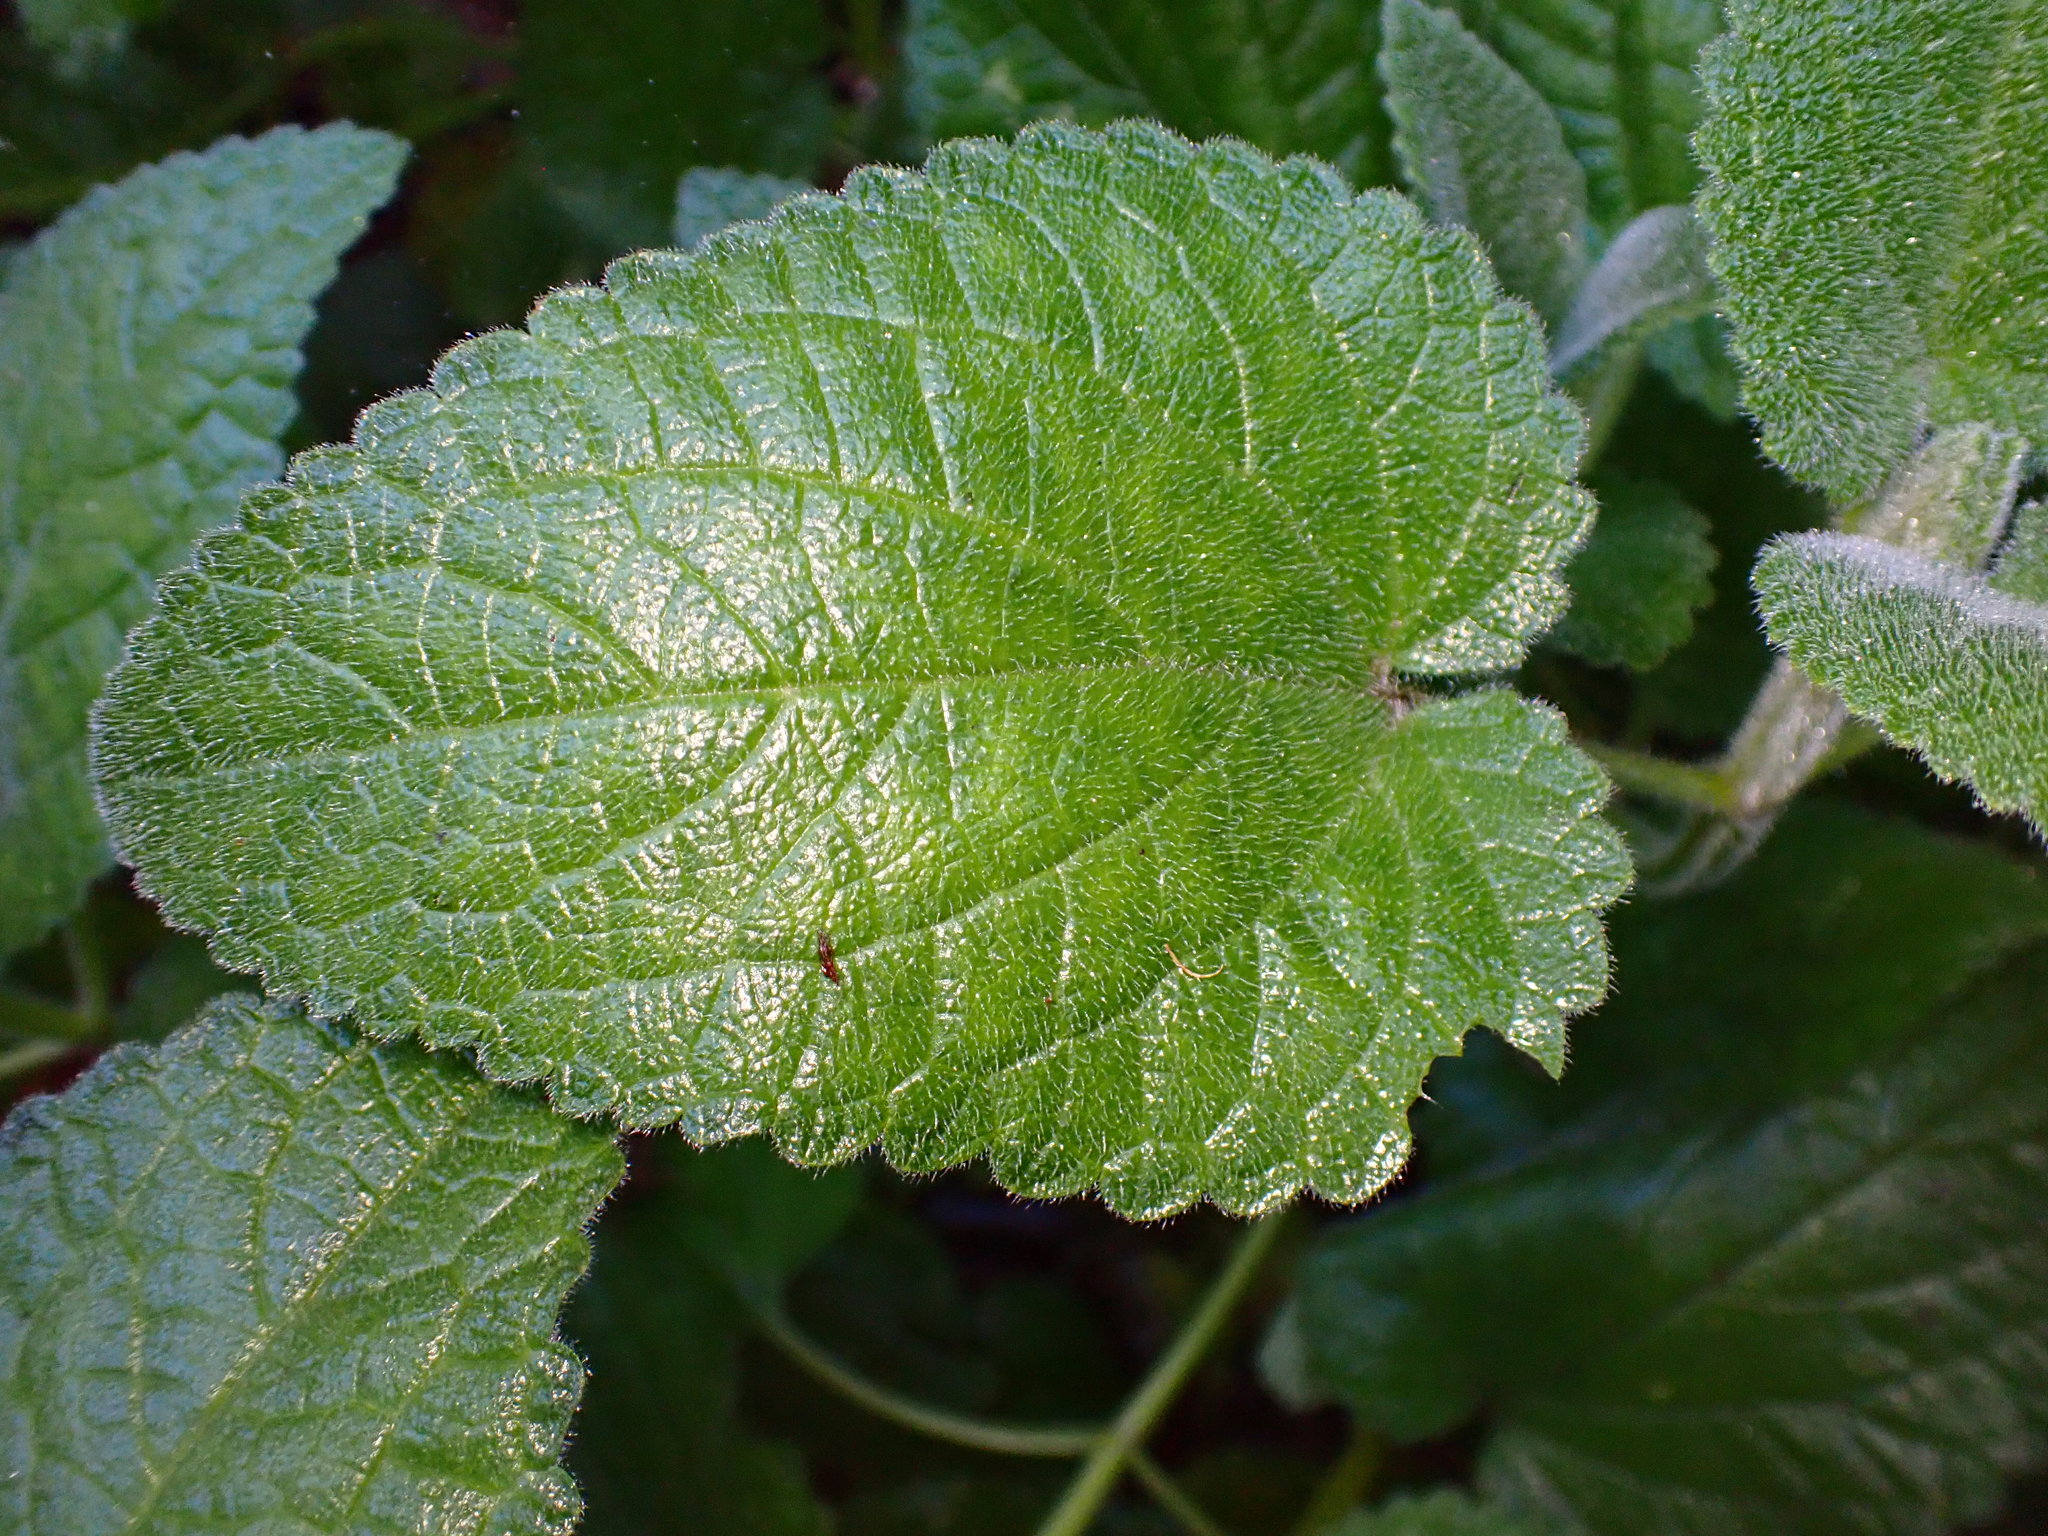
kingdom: Plantae
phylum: Tracheophyta
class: Magnoliopsida
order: Lamiales
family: Lamiaceae
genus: Stachys
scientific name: Stachys bullata
